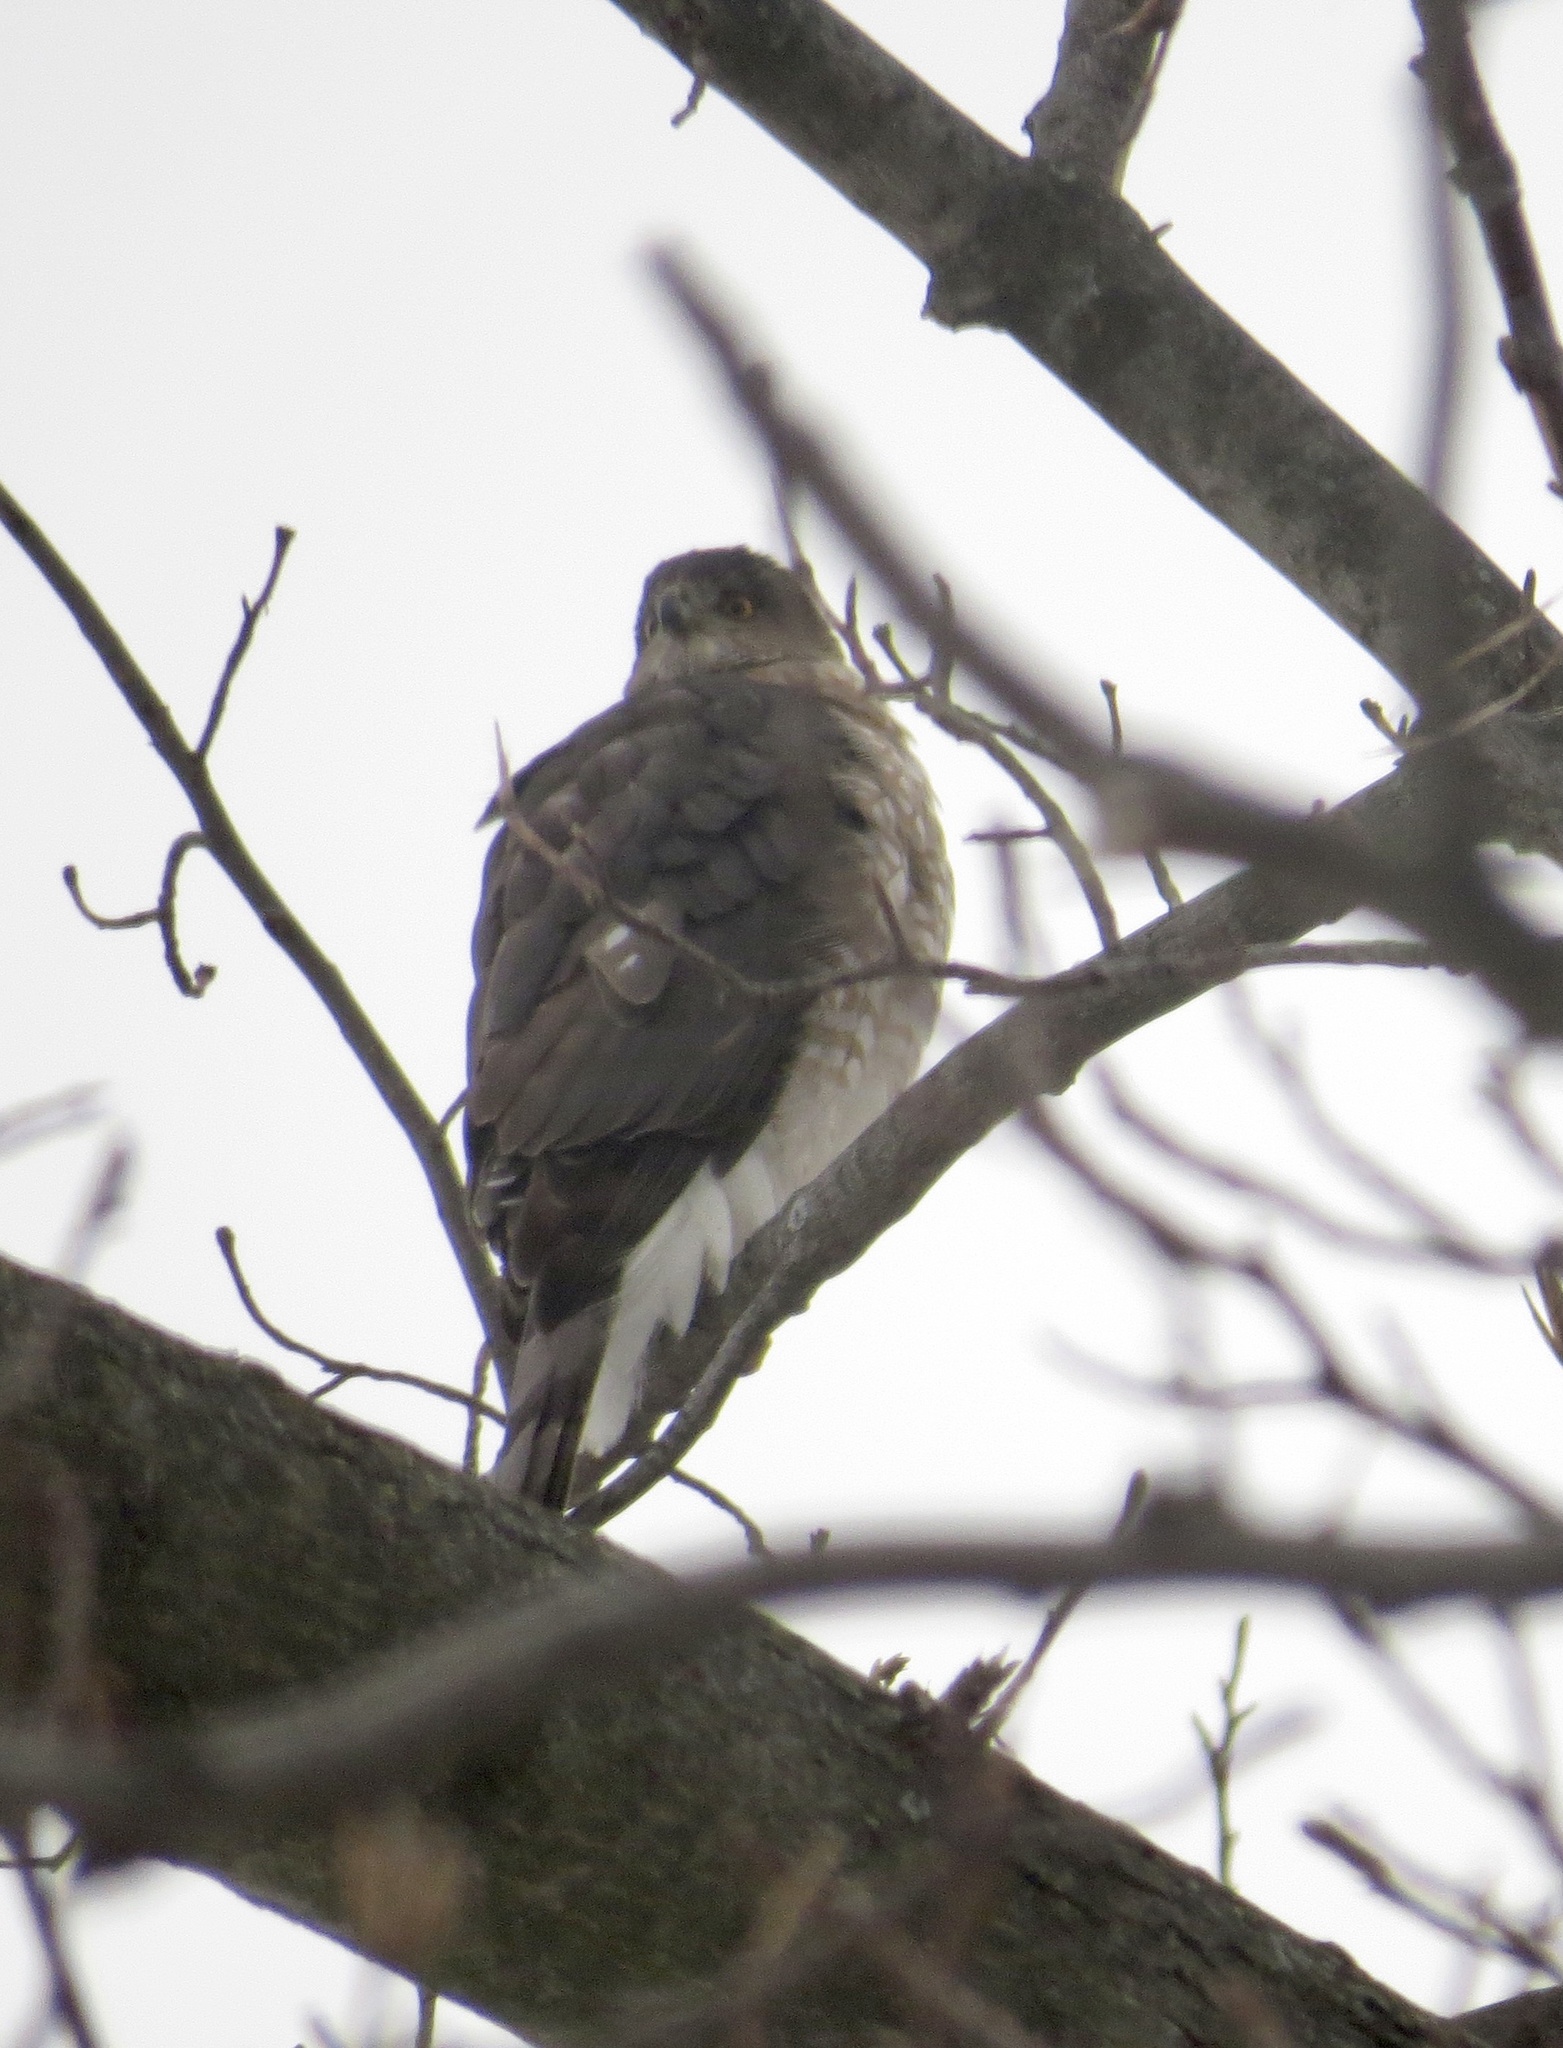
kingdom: Animalia
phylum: Chordata
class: Aves
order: Accipitriformes
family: Accipitridae
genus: Accipiter
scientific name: Accipiter cooperii
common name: Cooper's hawk
